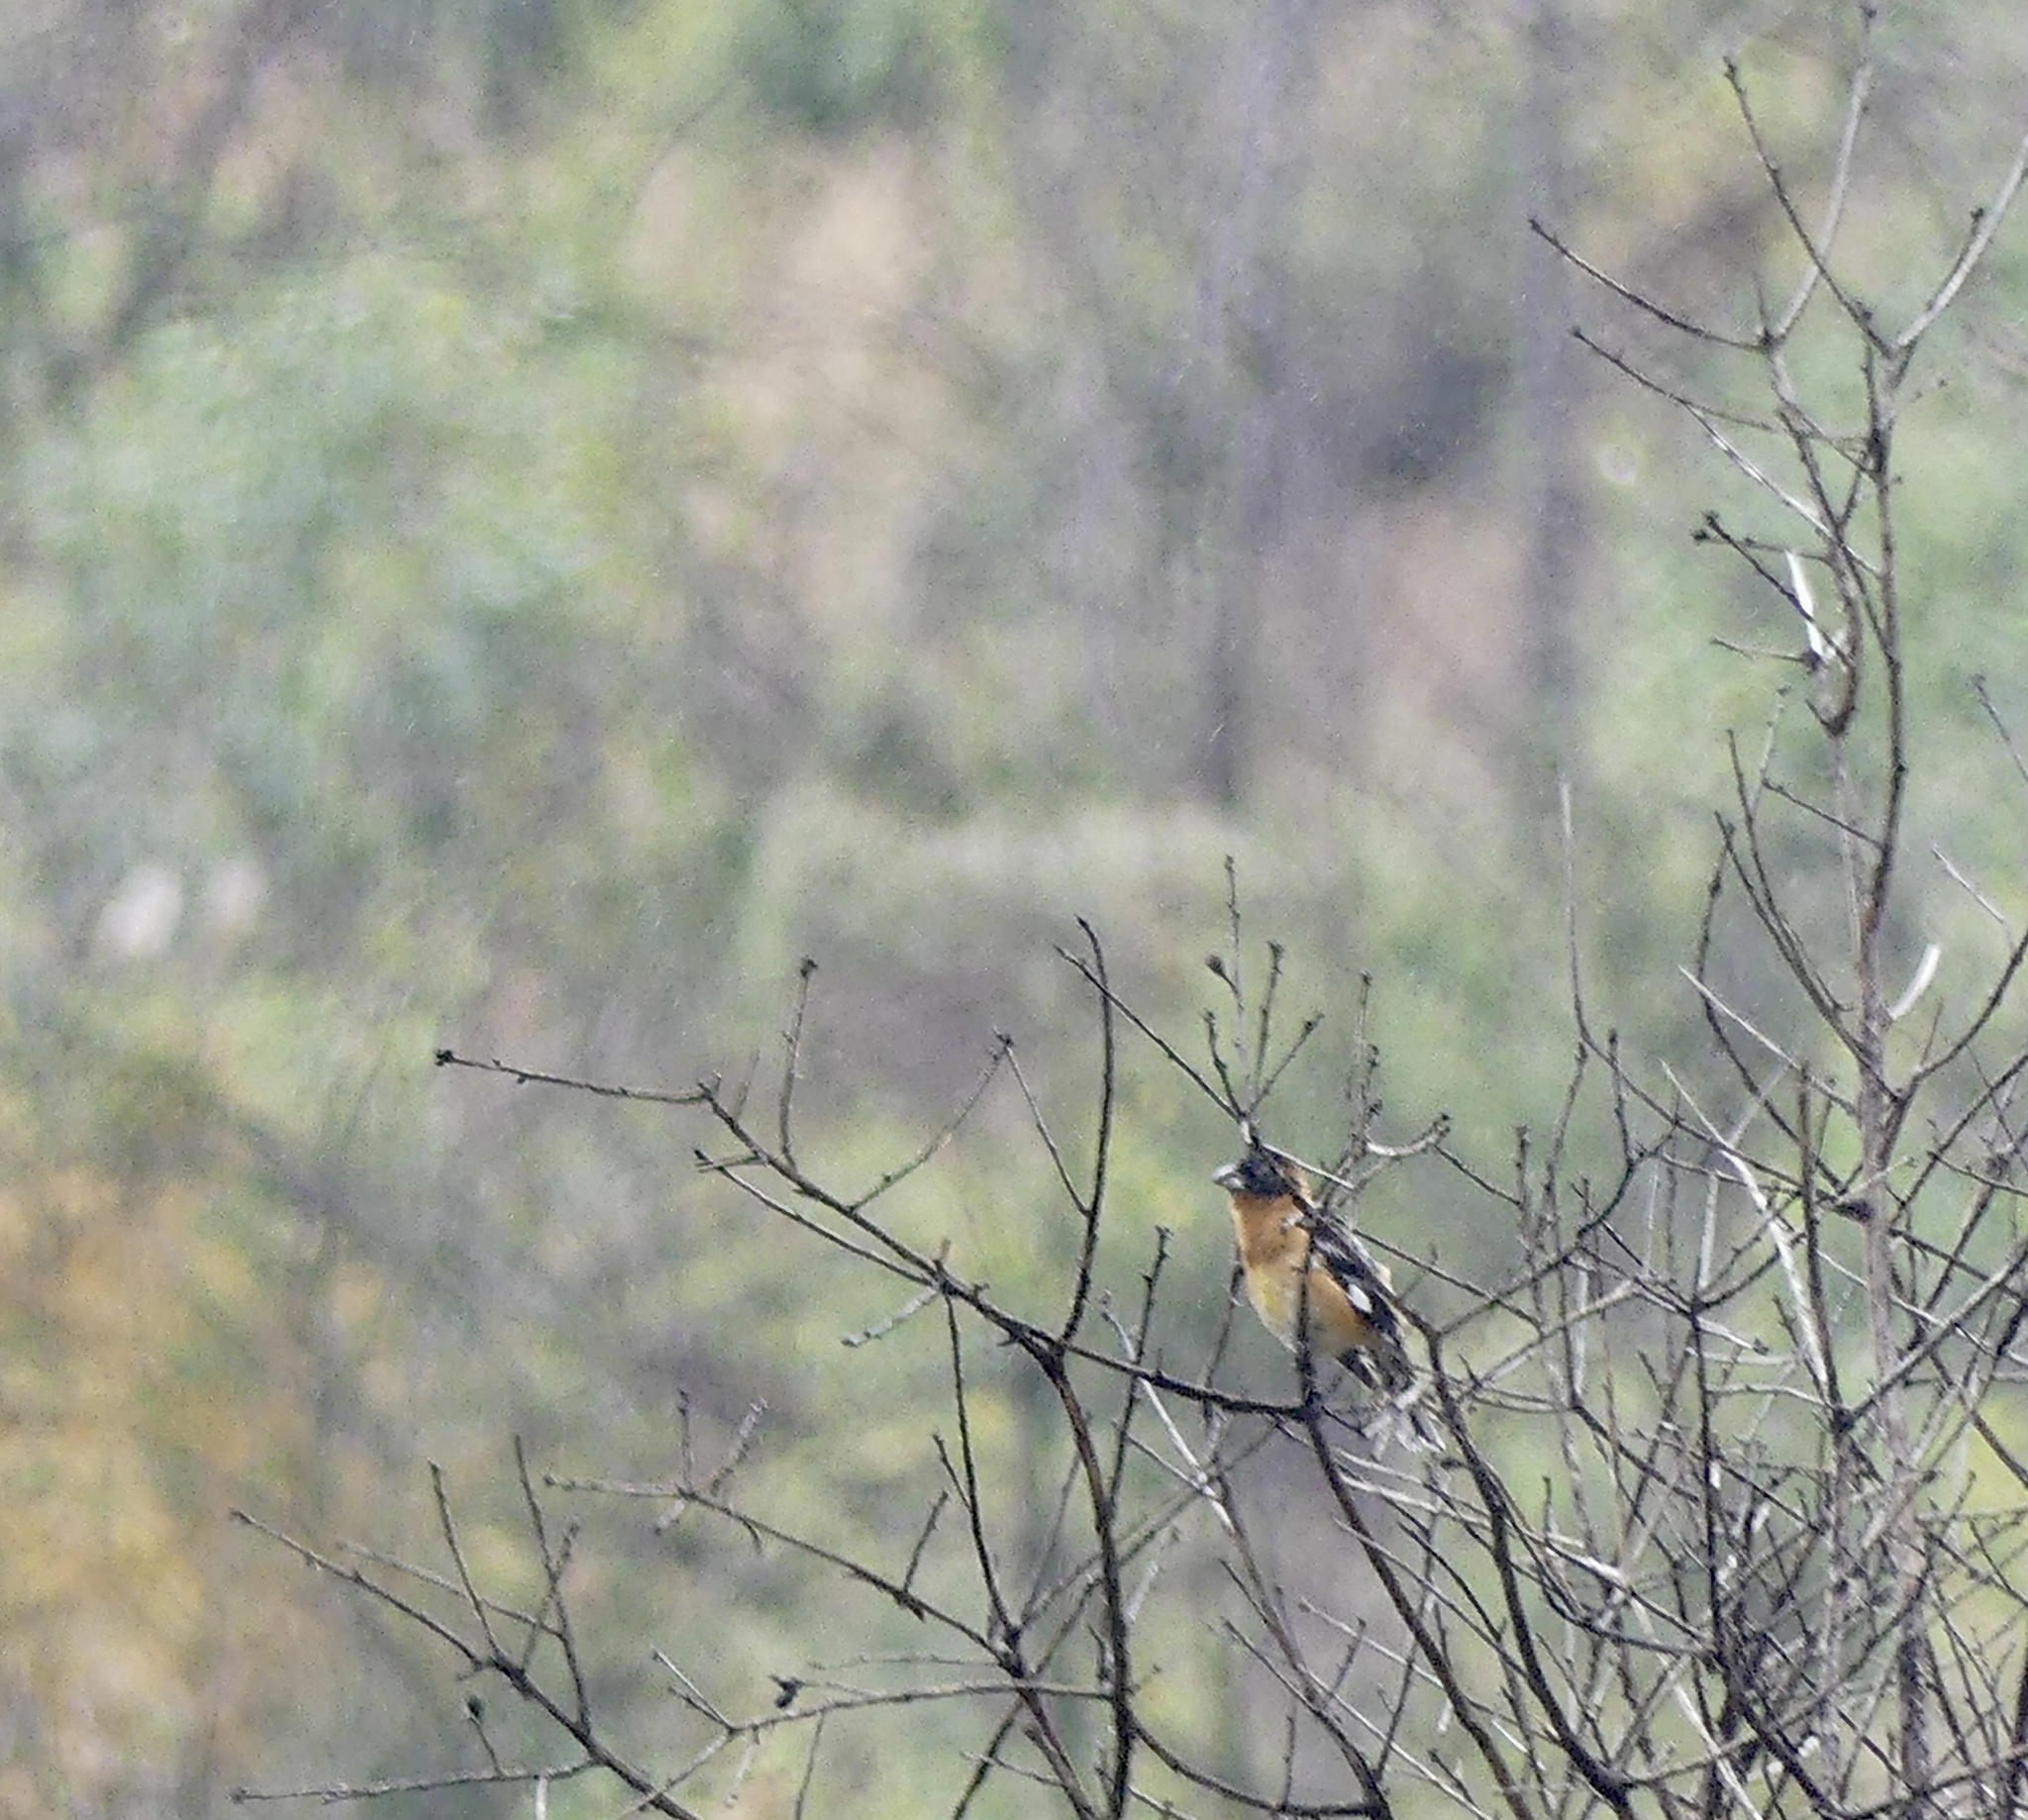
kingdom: Animalia
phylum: Chordata
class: Aves
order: Passeriformes
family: Cardinalidae
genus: Pheucticus
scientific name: Pheucticus melanocephalus
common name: Black-headed grosbeak
